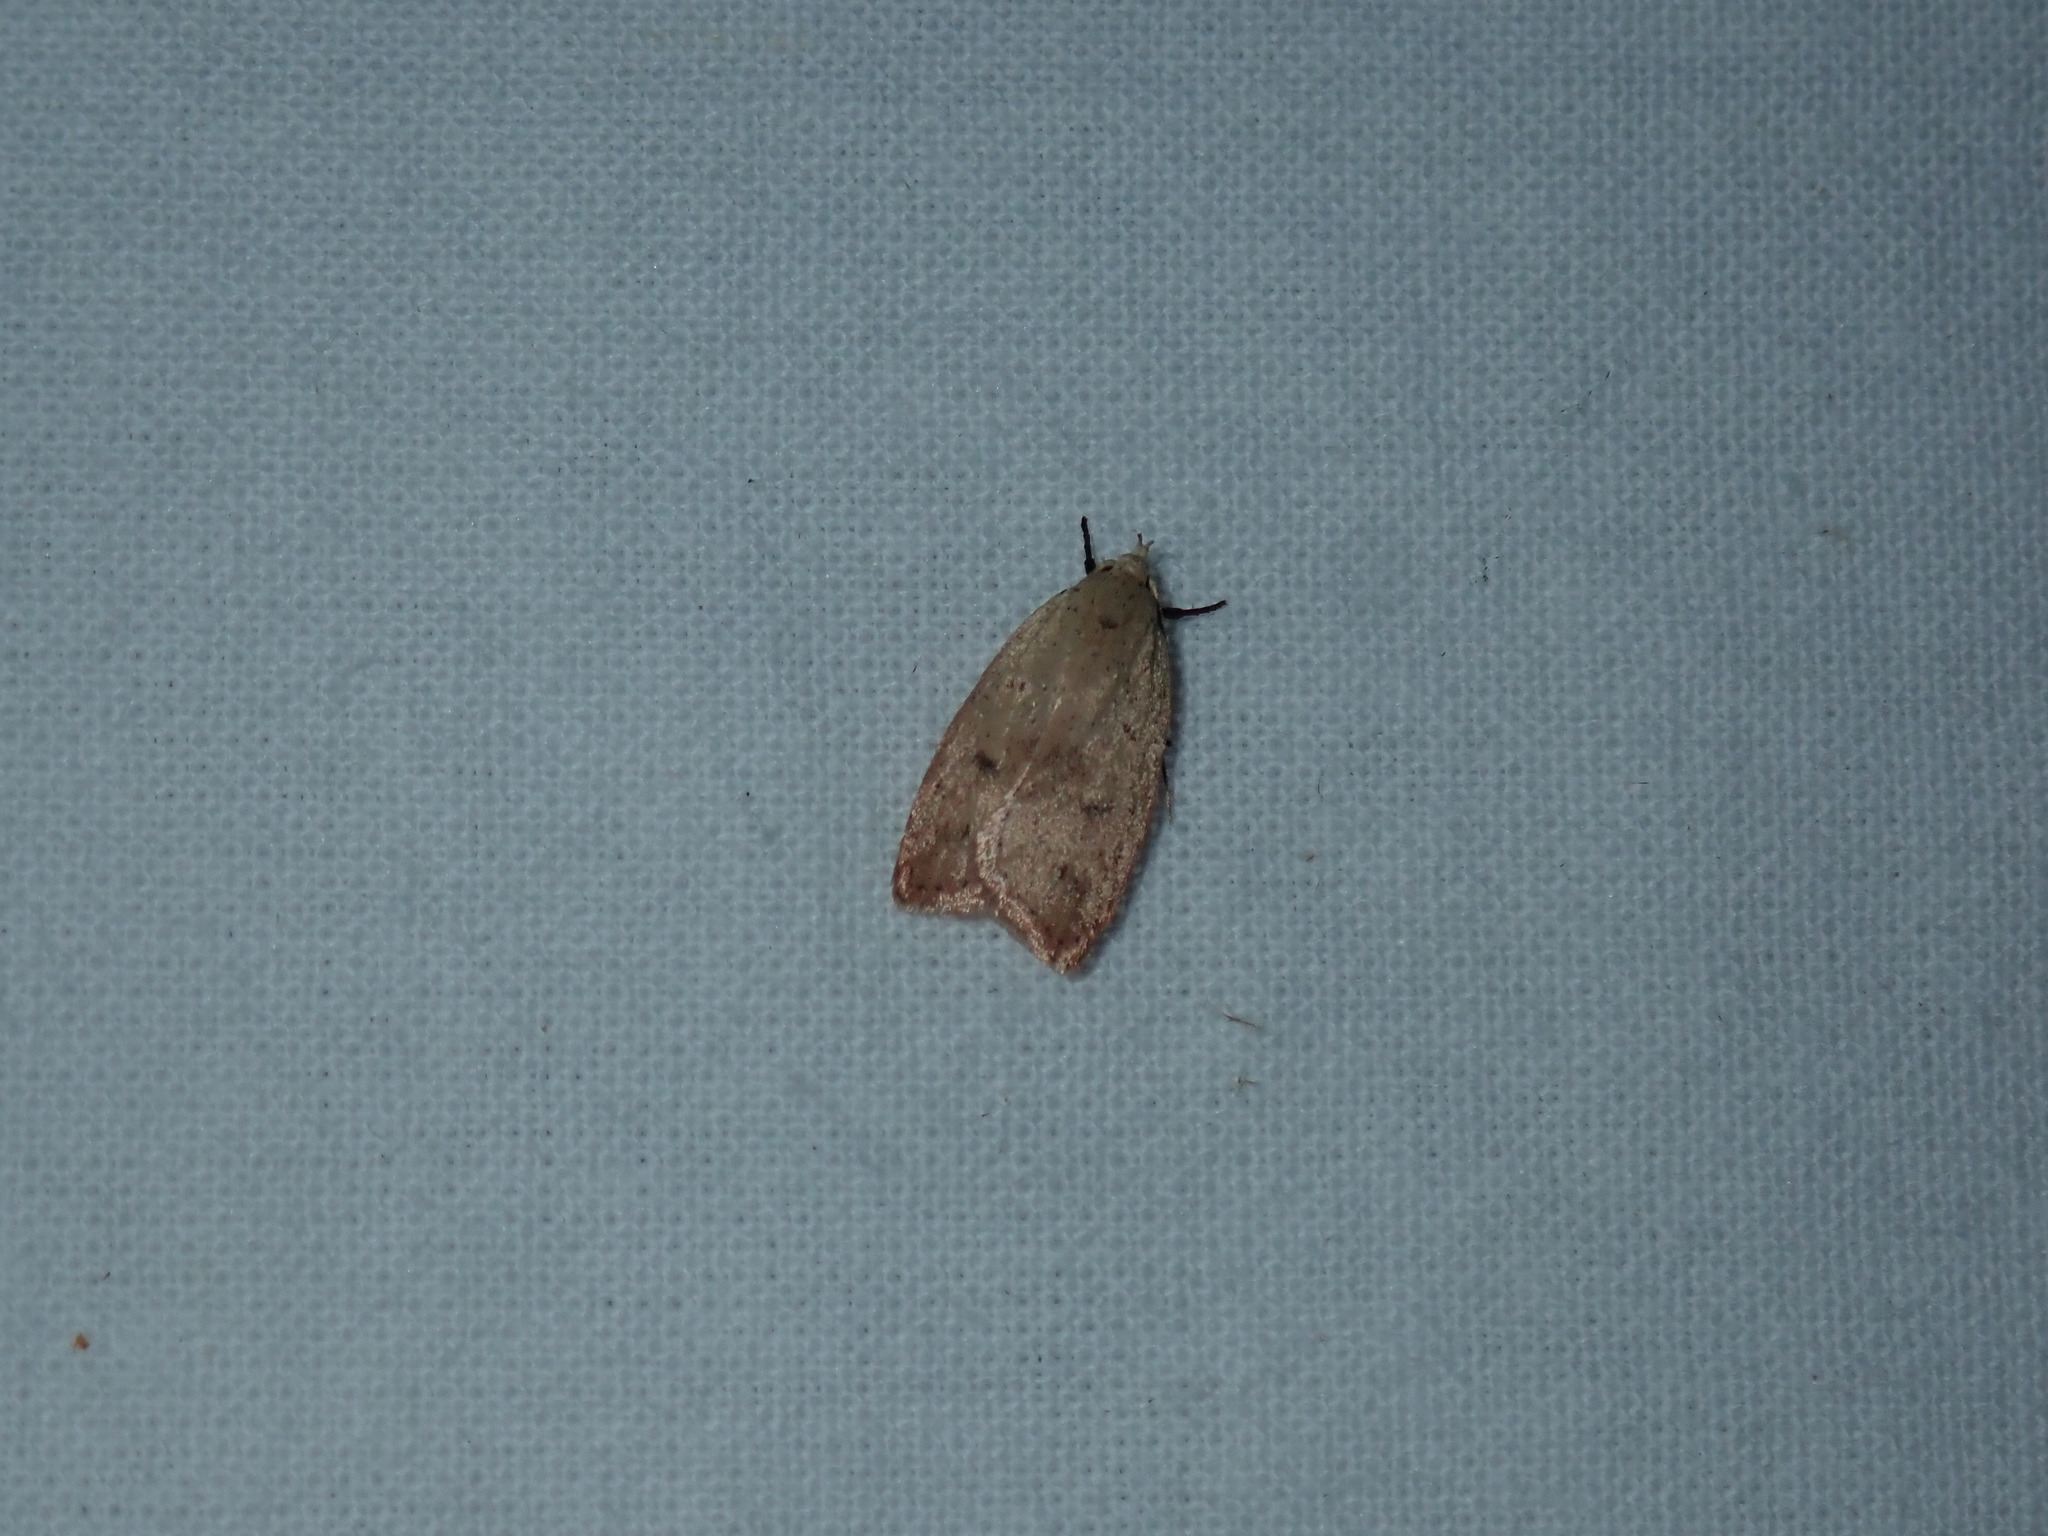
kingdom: Animalia
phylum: Arthropoda
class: Insecta
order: Lepidoptera
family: Peleopodidae
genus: Machimia
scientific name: Machimia tentoriferella
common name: Gold-striped leaftier moth
